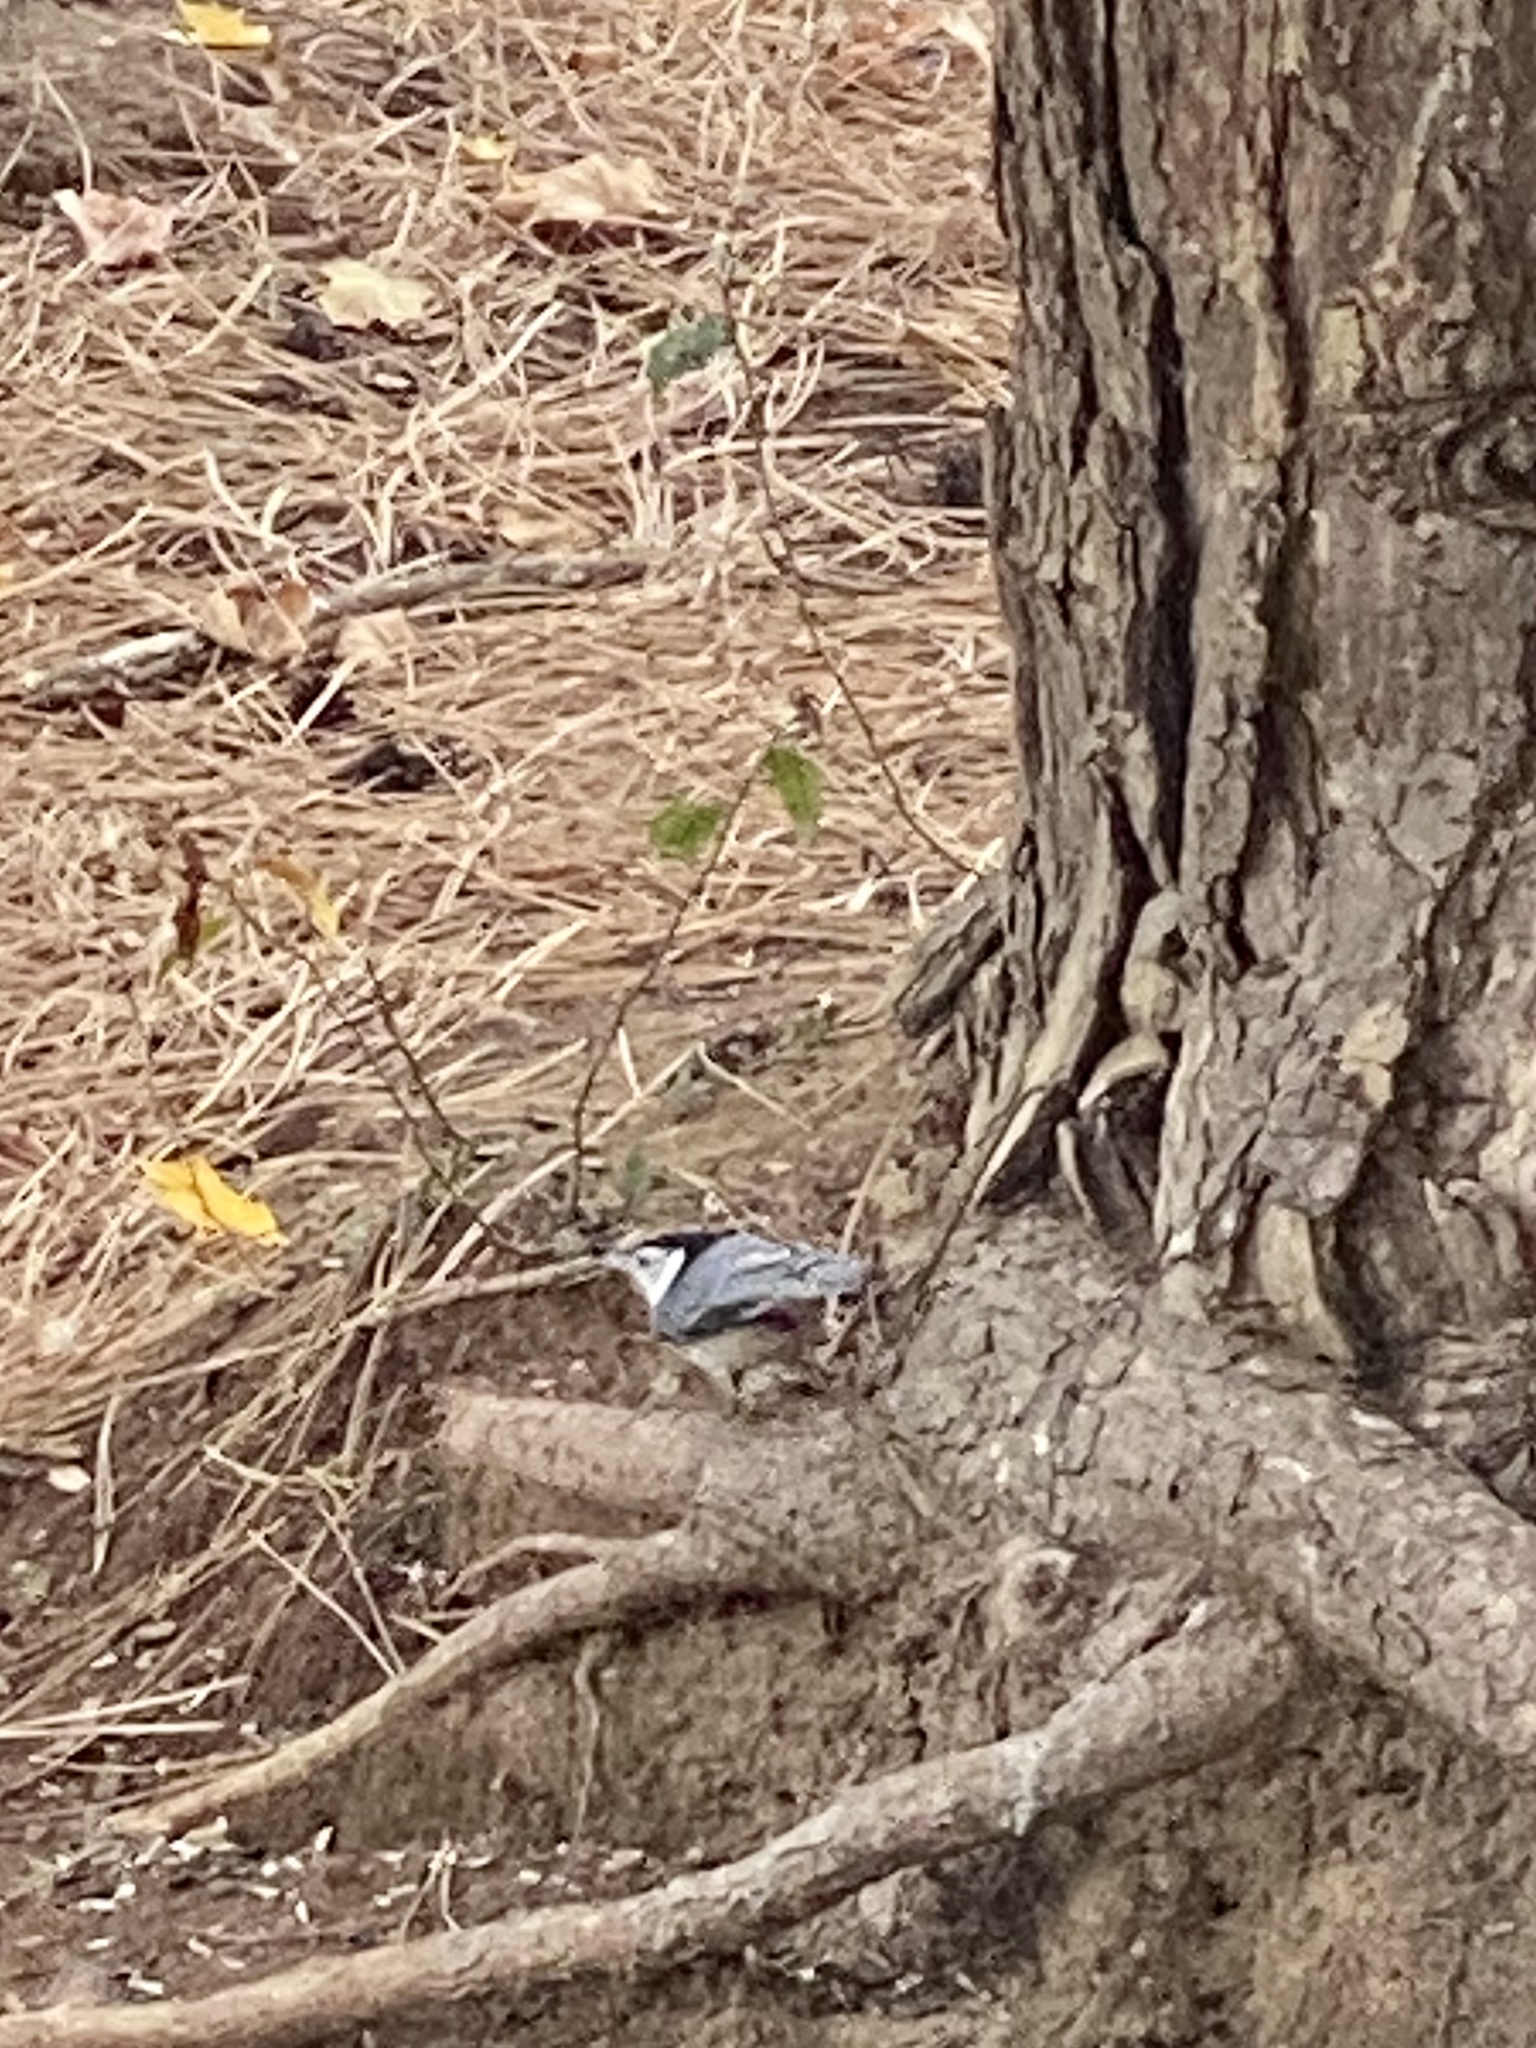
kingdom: Animalia
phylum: Chordata
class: Aves
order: Passeriformes
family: Sittidae
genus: Sitta
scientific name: Sitta carolinensis
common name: White-breasted nuthatch
